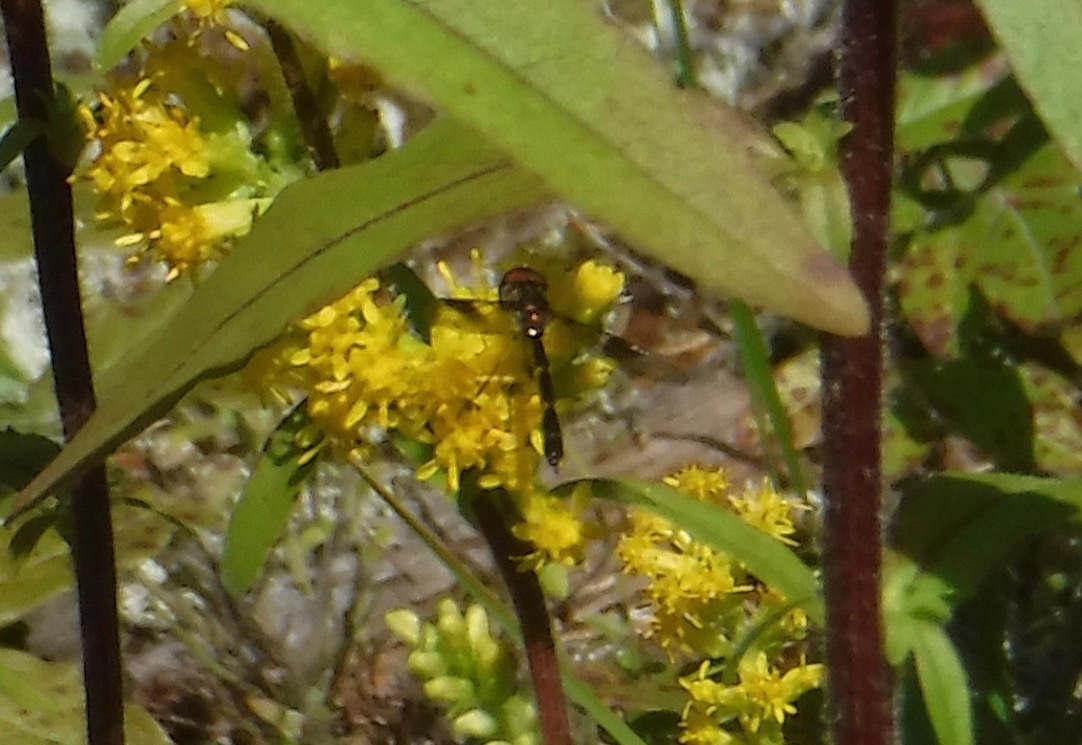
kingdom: Animalia
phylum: Arthropoda
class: Insecta
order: Diptera
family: Syrphidae
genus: Hypocritanus
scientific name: Hypocritanus fascipennis
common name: Eastern band-winged hover fly
